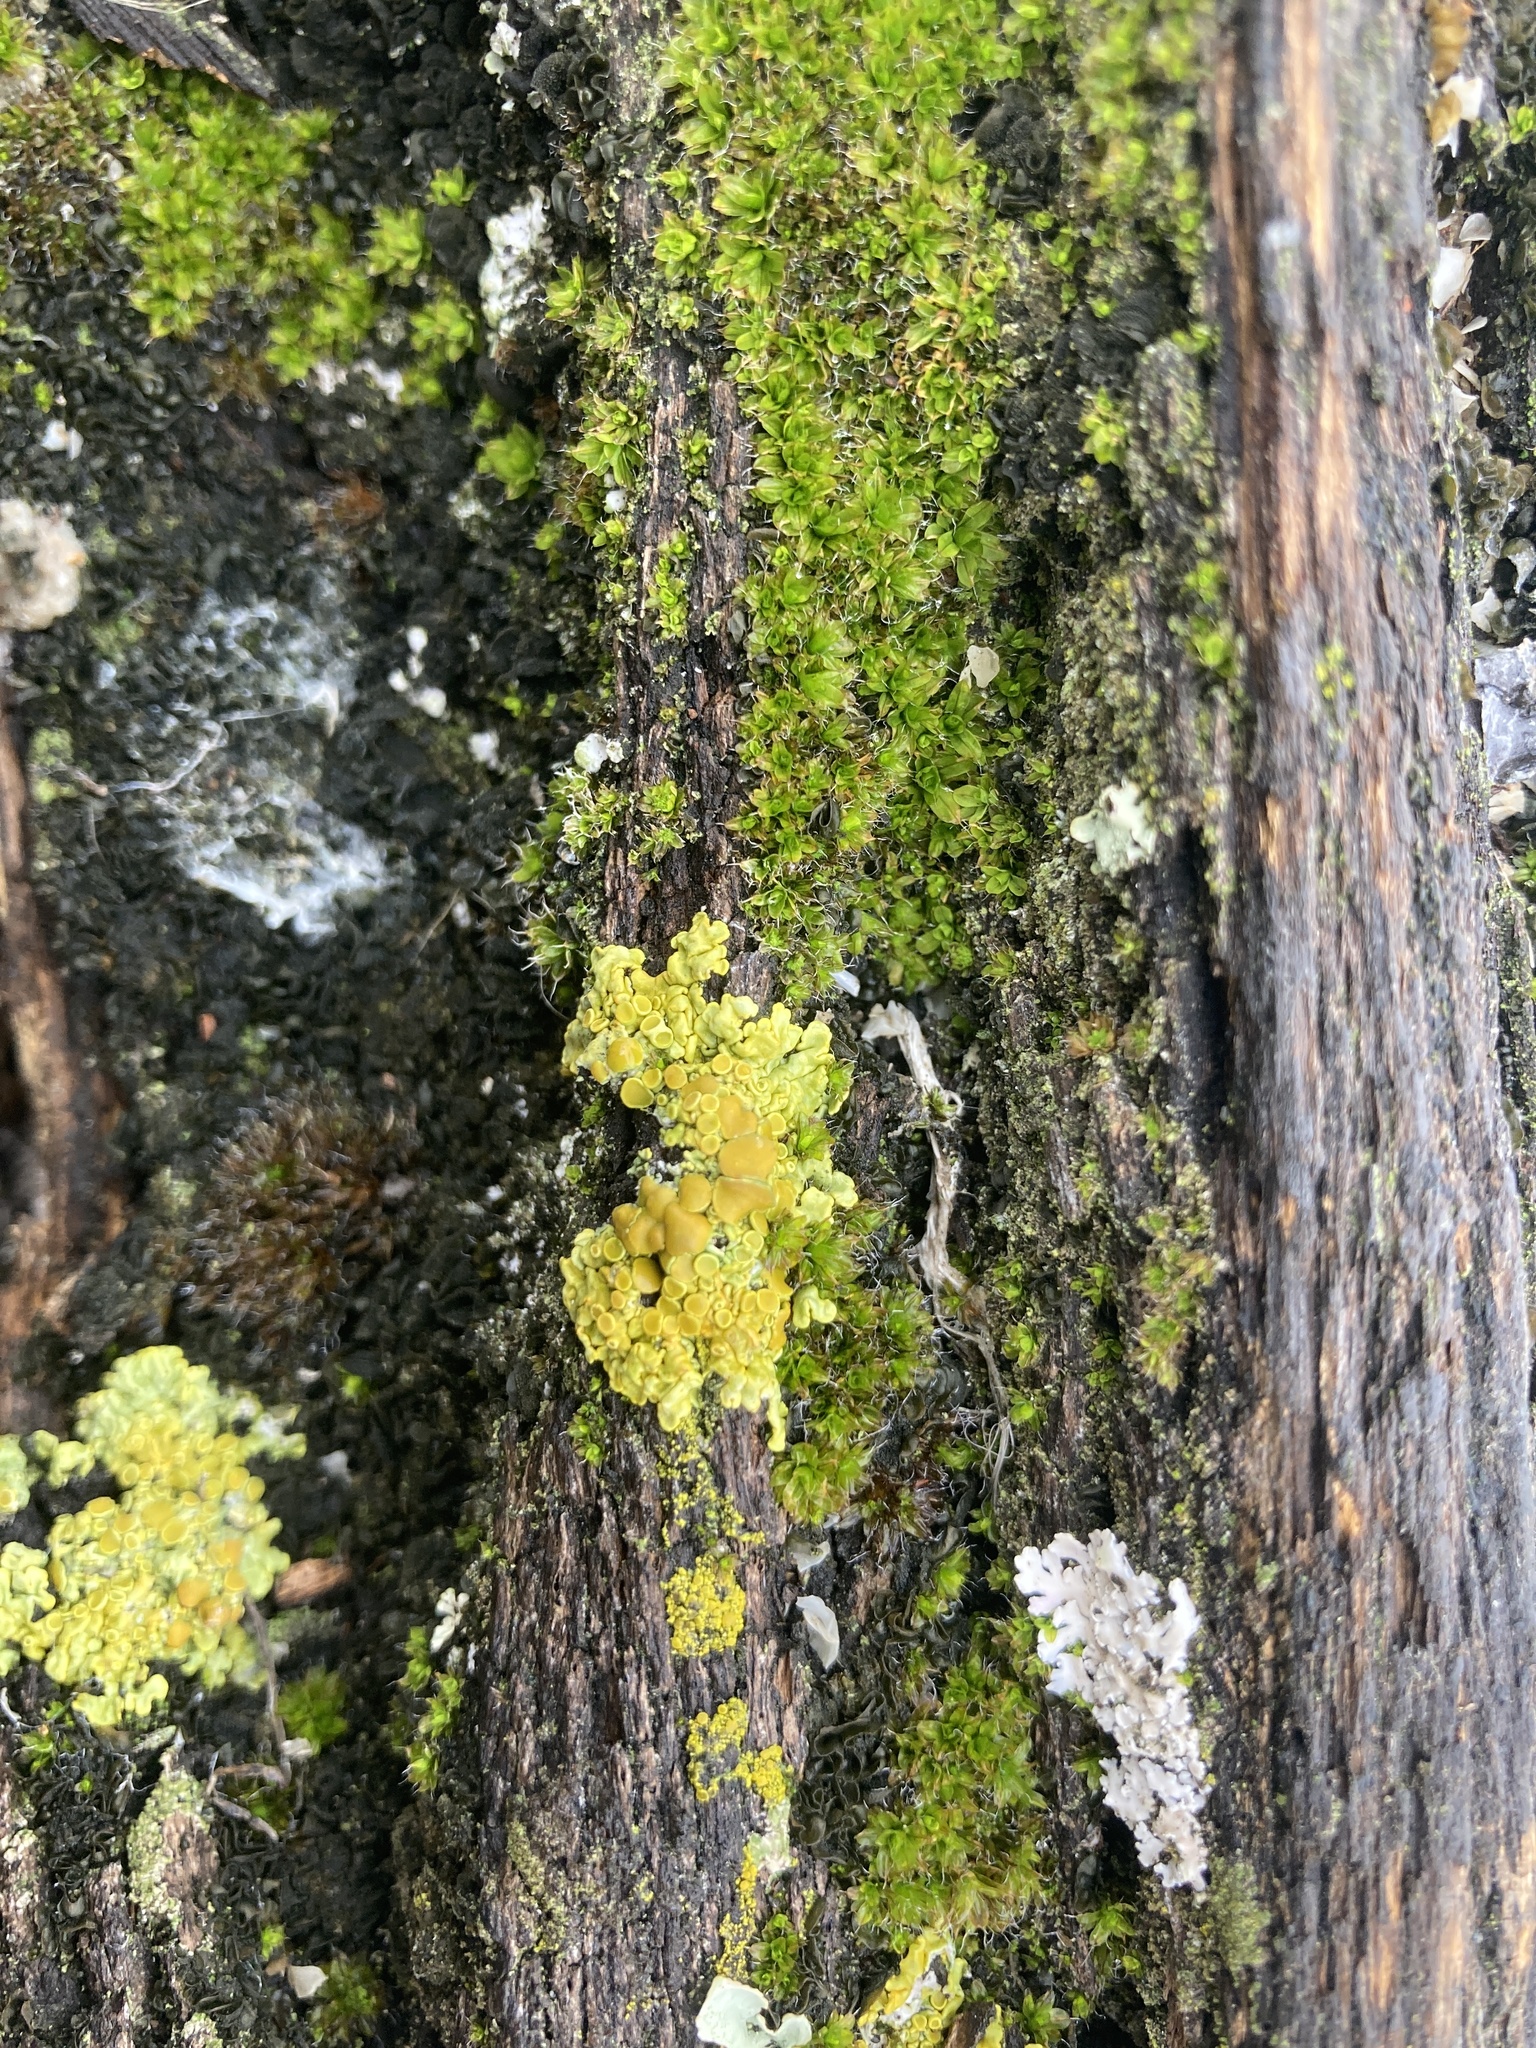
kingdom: Fungi
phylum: Ascomycota
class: Lecanoromycetes
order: Teloschistales
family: Teloschistaceae
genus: Xanthoria
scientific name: Xanthoria parietina
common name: Common orange lichen
